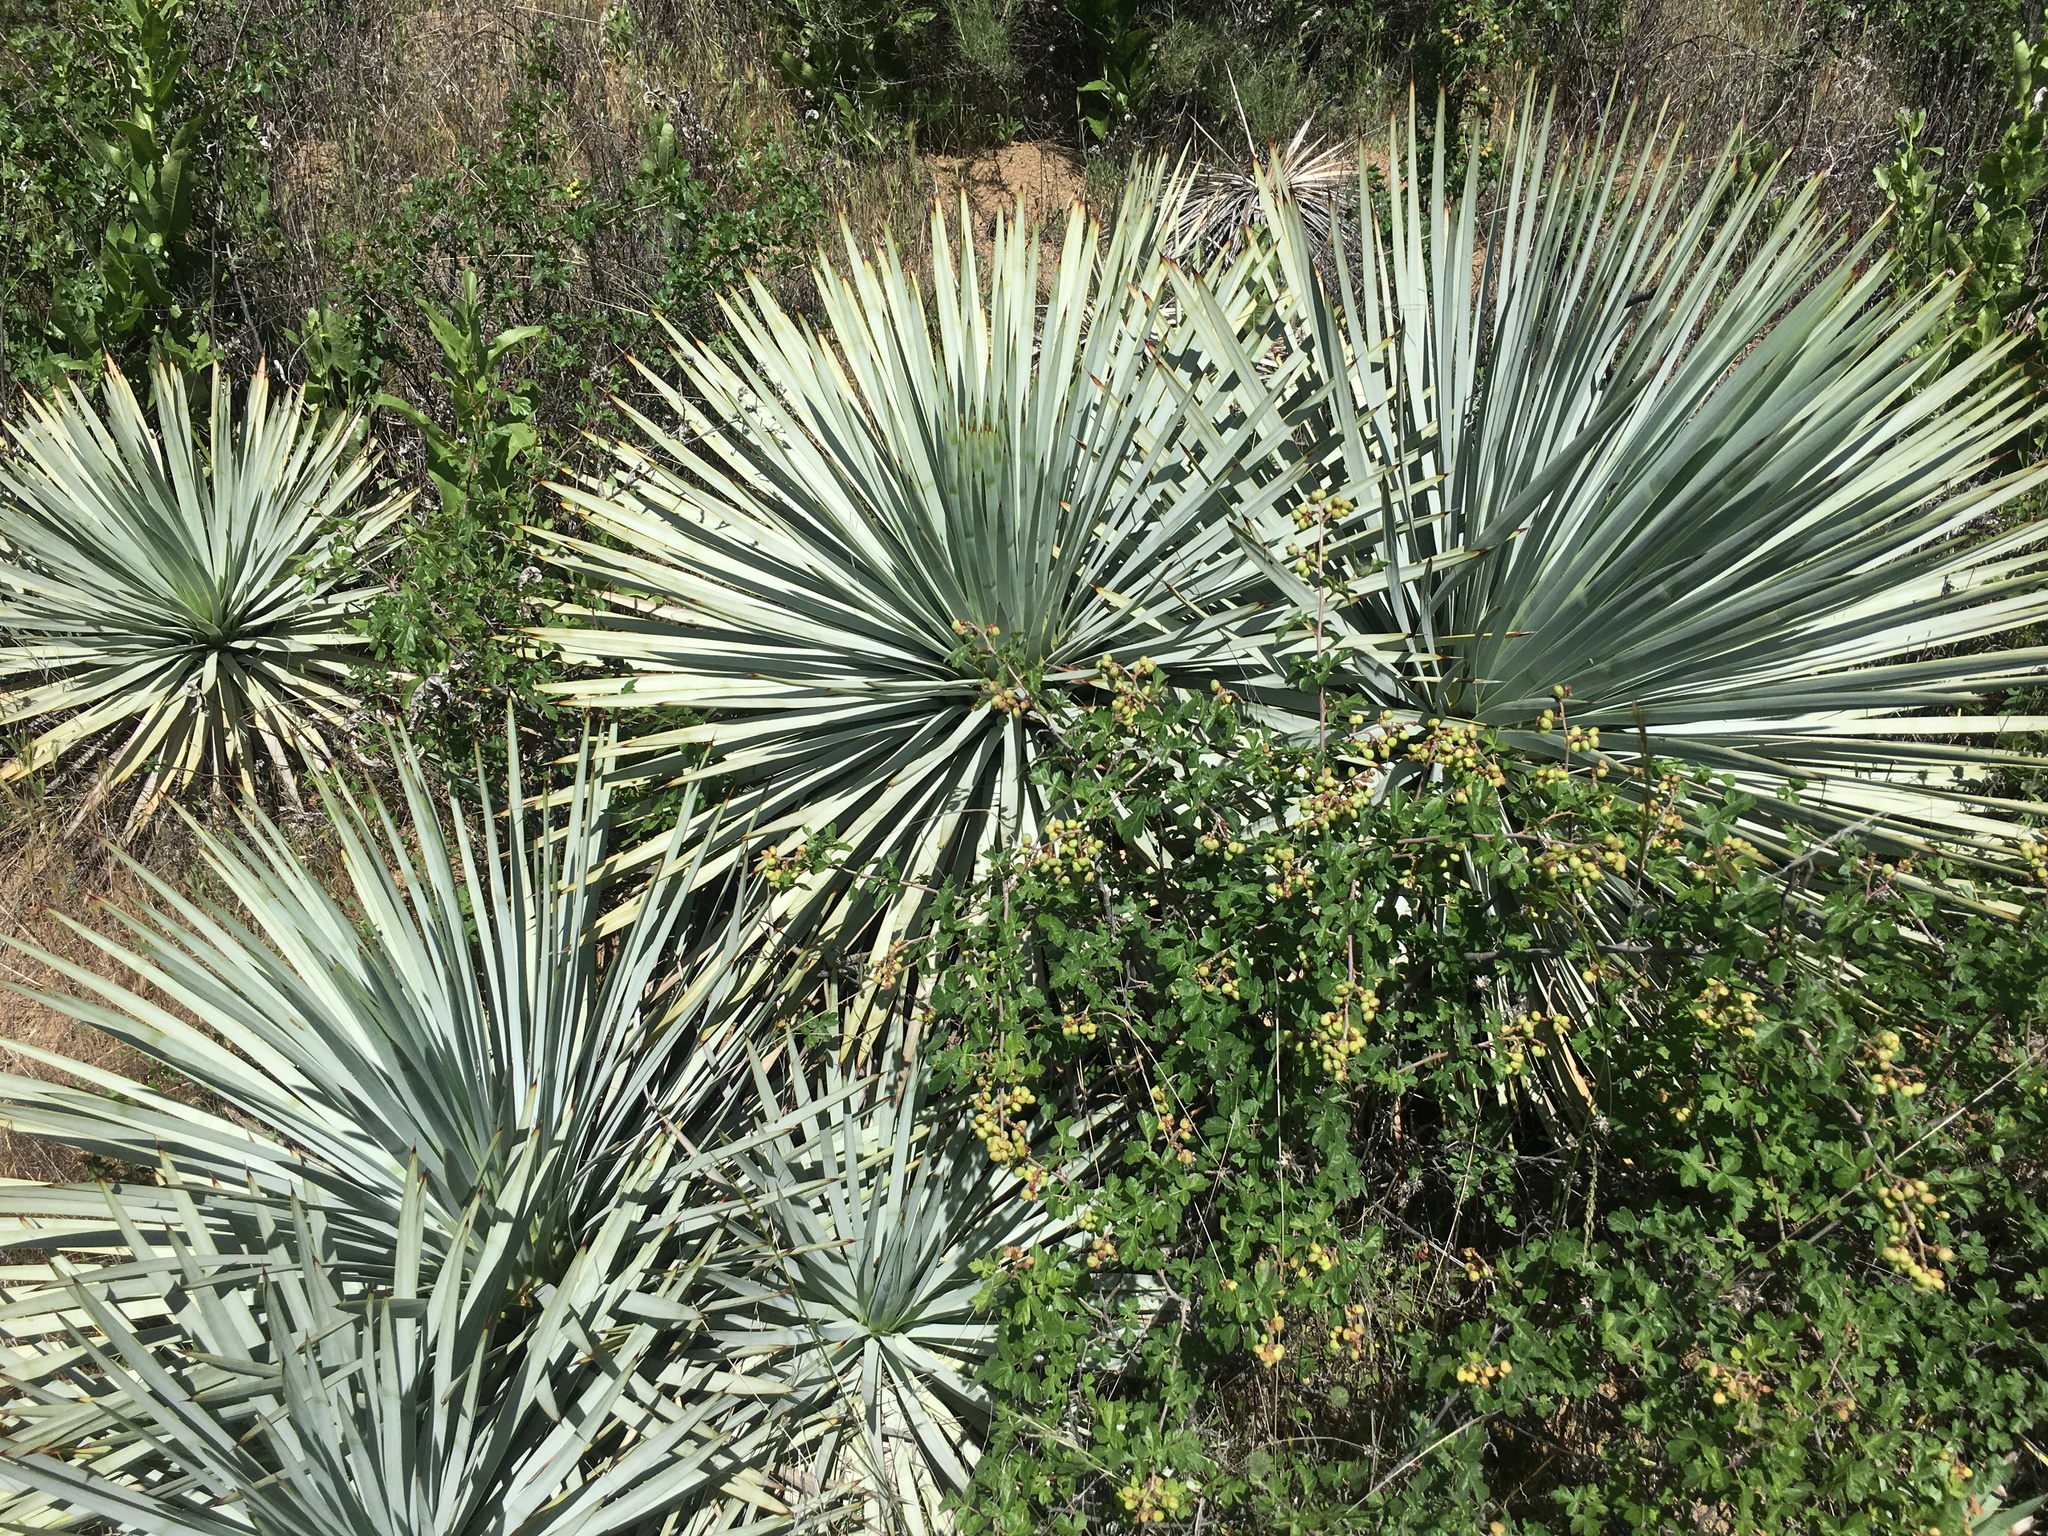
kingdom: Plantae
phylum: Tracheophyta
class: Liliopsida
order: Asparagales
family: Asparagaceae
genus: Hesperoyucca
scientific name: Hesperoyucca whipplei
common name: Our lord's-candle
